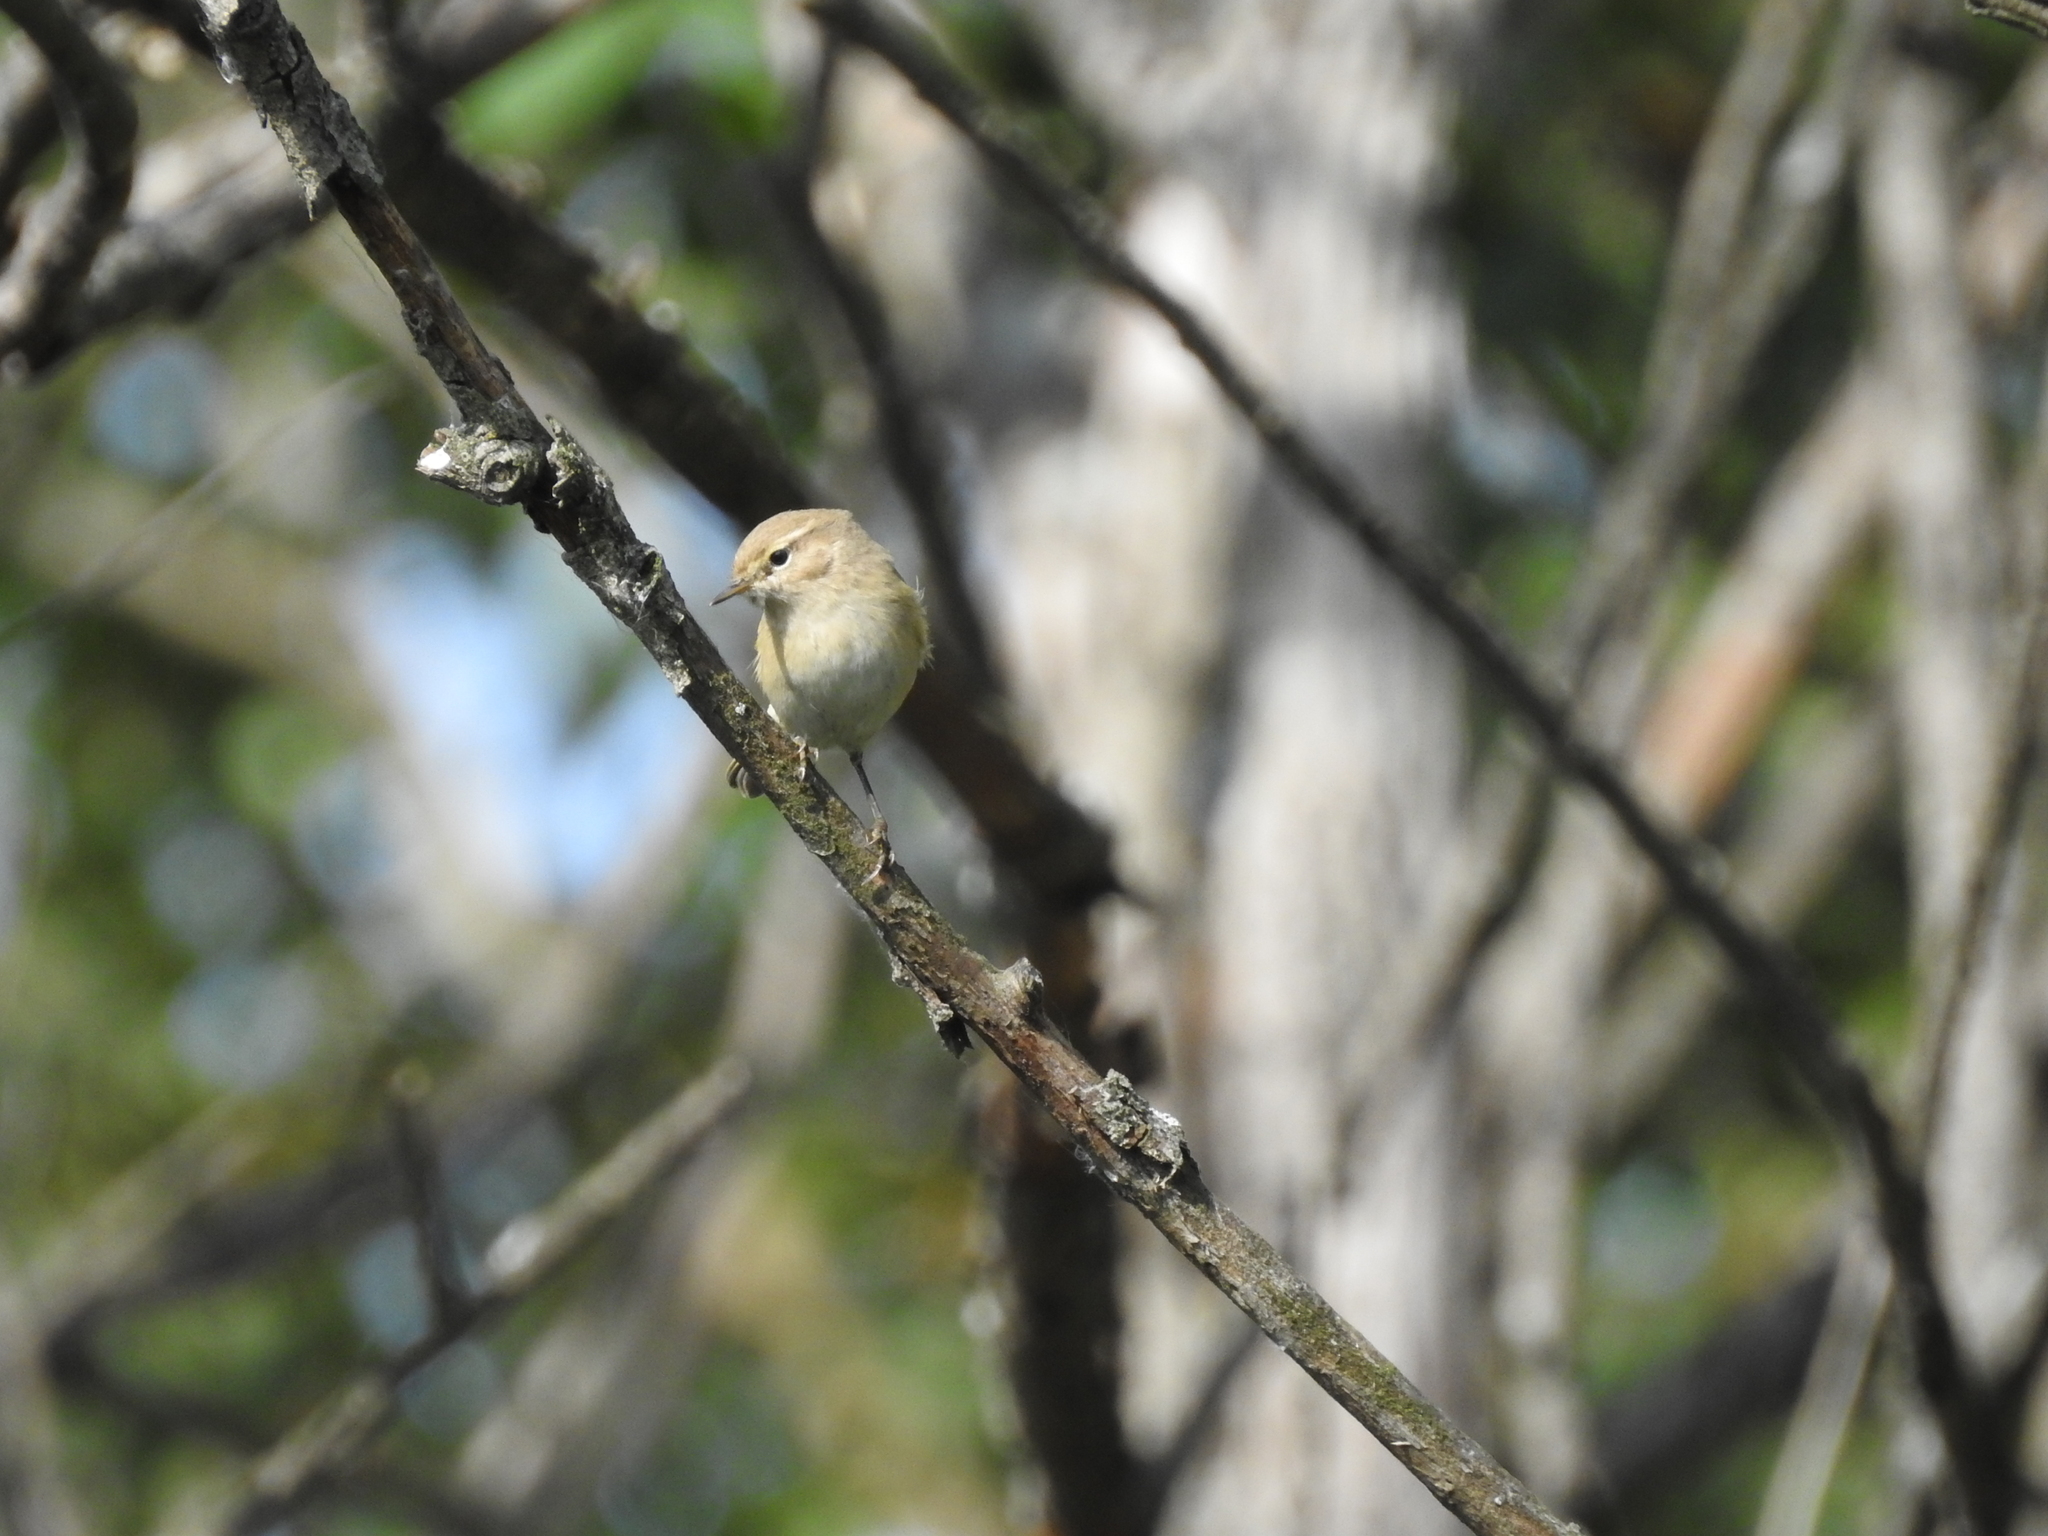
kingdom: Animalia
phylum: Chordata
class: Aves
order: Passeriformes
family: Phylloscopidae
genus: Phylloscopus
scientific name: Phylloscopus collybita
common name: Common chiffchaff
